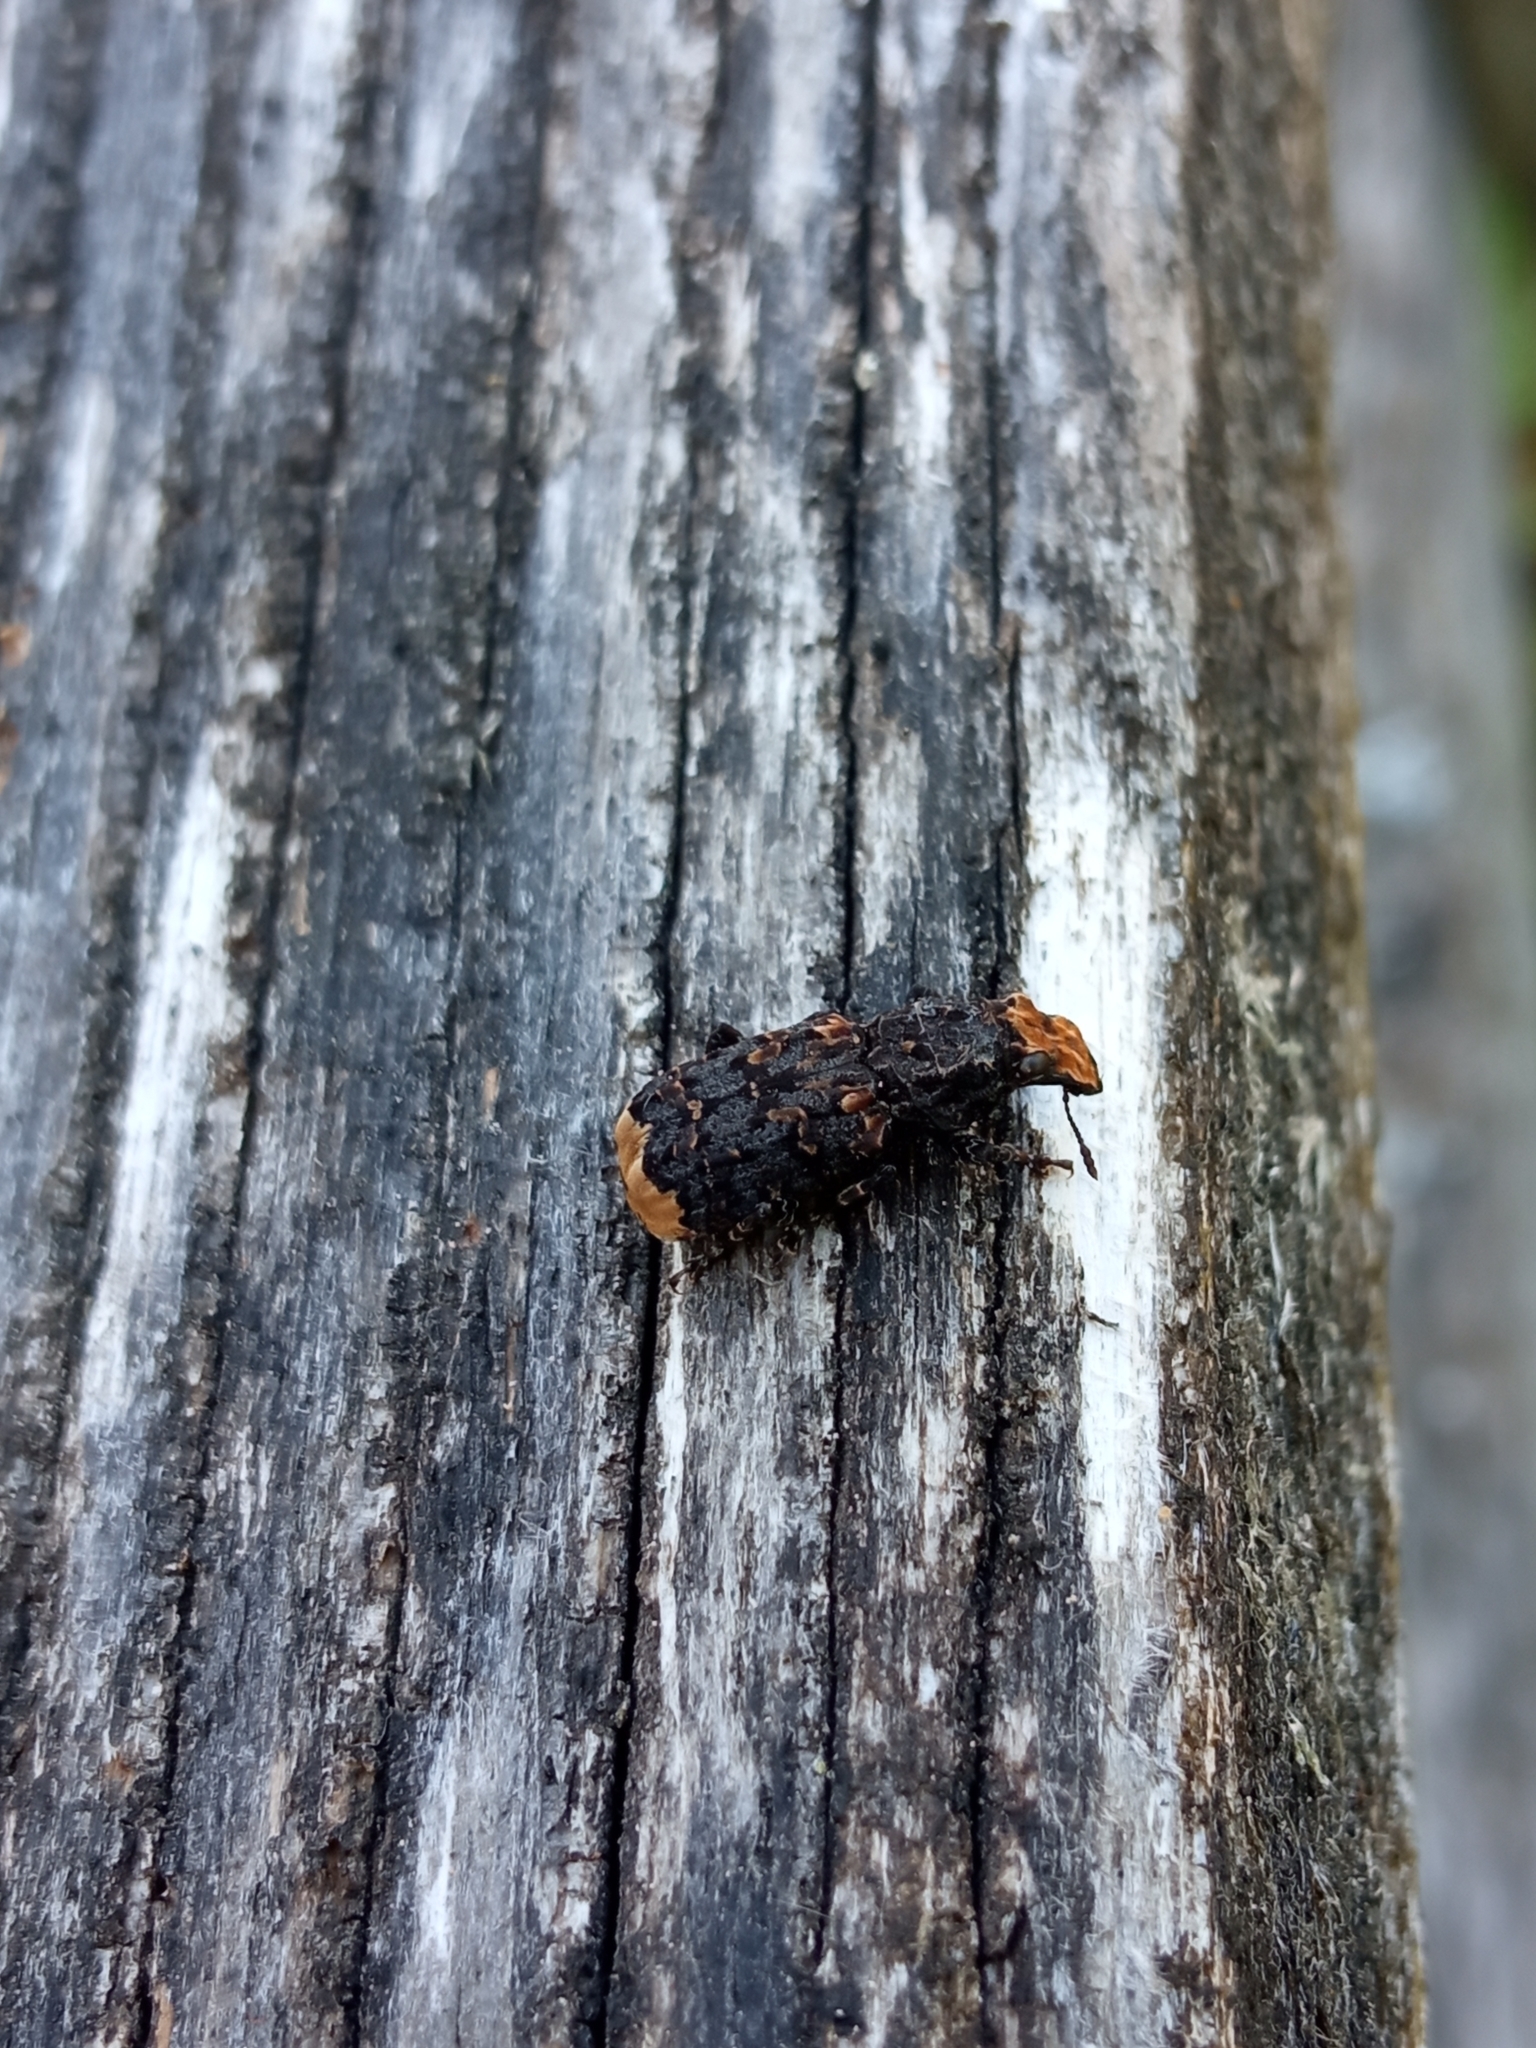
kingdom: Animalia
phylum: Arthropoda
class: Insecta
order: Coleoptera
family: Anthribidae
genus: Platyrhinus
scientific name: Platyrhinus resinosus
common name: Cramp-ball fungus weevil
